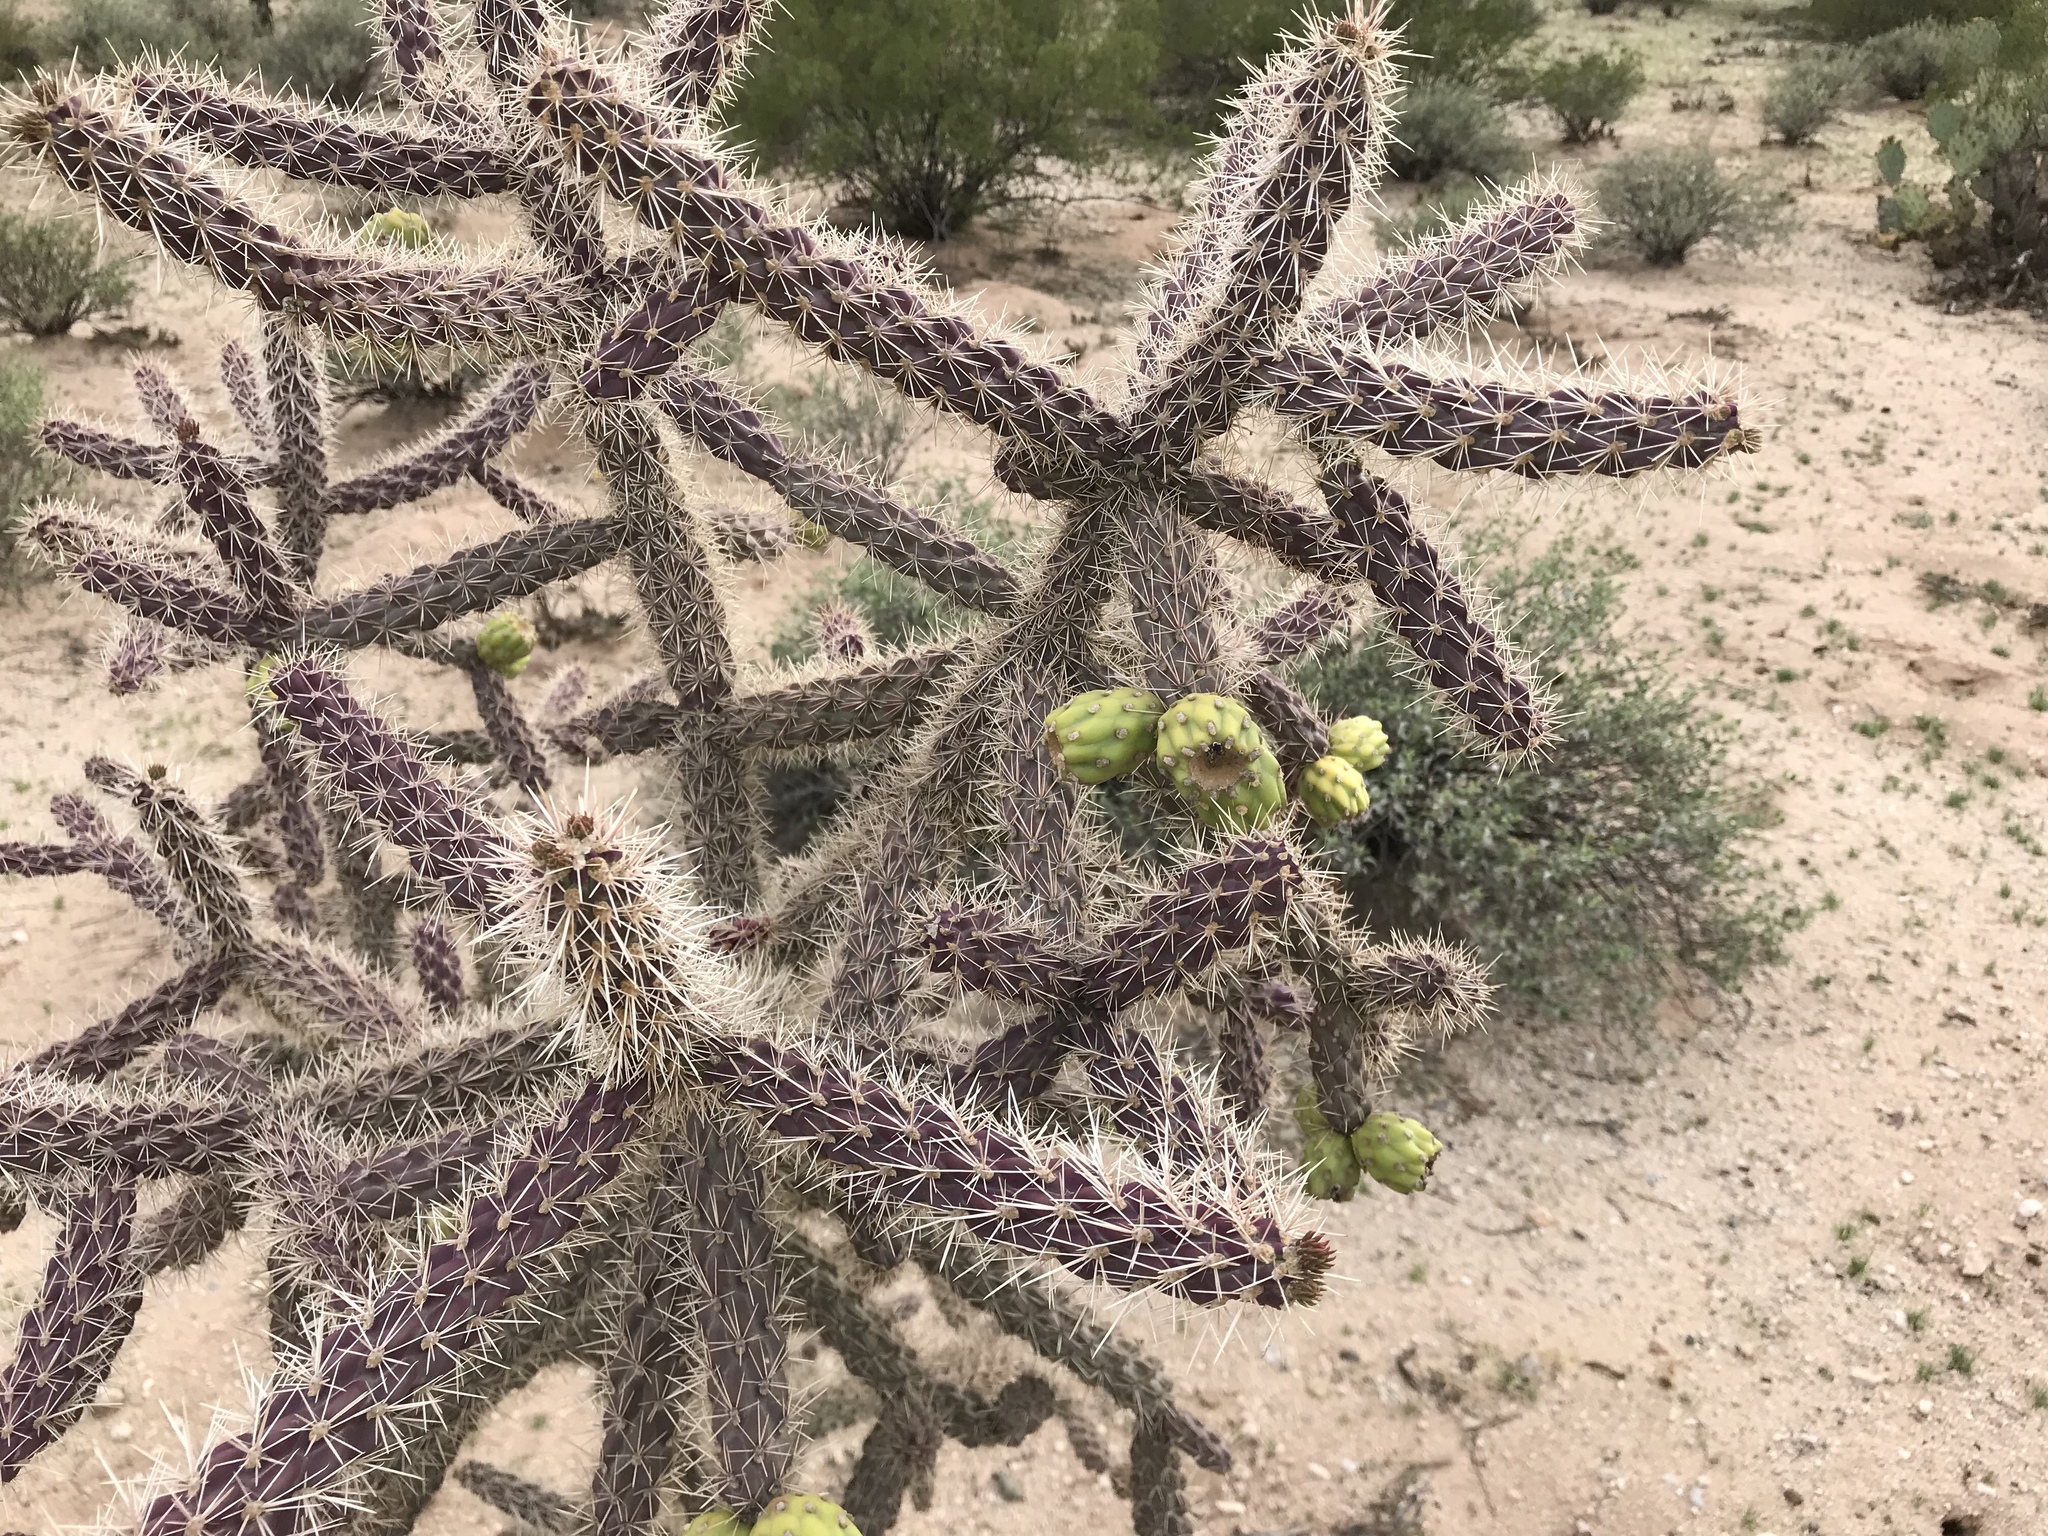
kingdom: Plantae
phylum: Tracheophyta
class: Magnoliopsida
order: Caryophyllales
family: Cactaceae
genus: Cylindropuntia
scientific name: Cylindropuntia imbricata
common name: Candelabrum cactus
